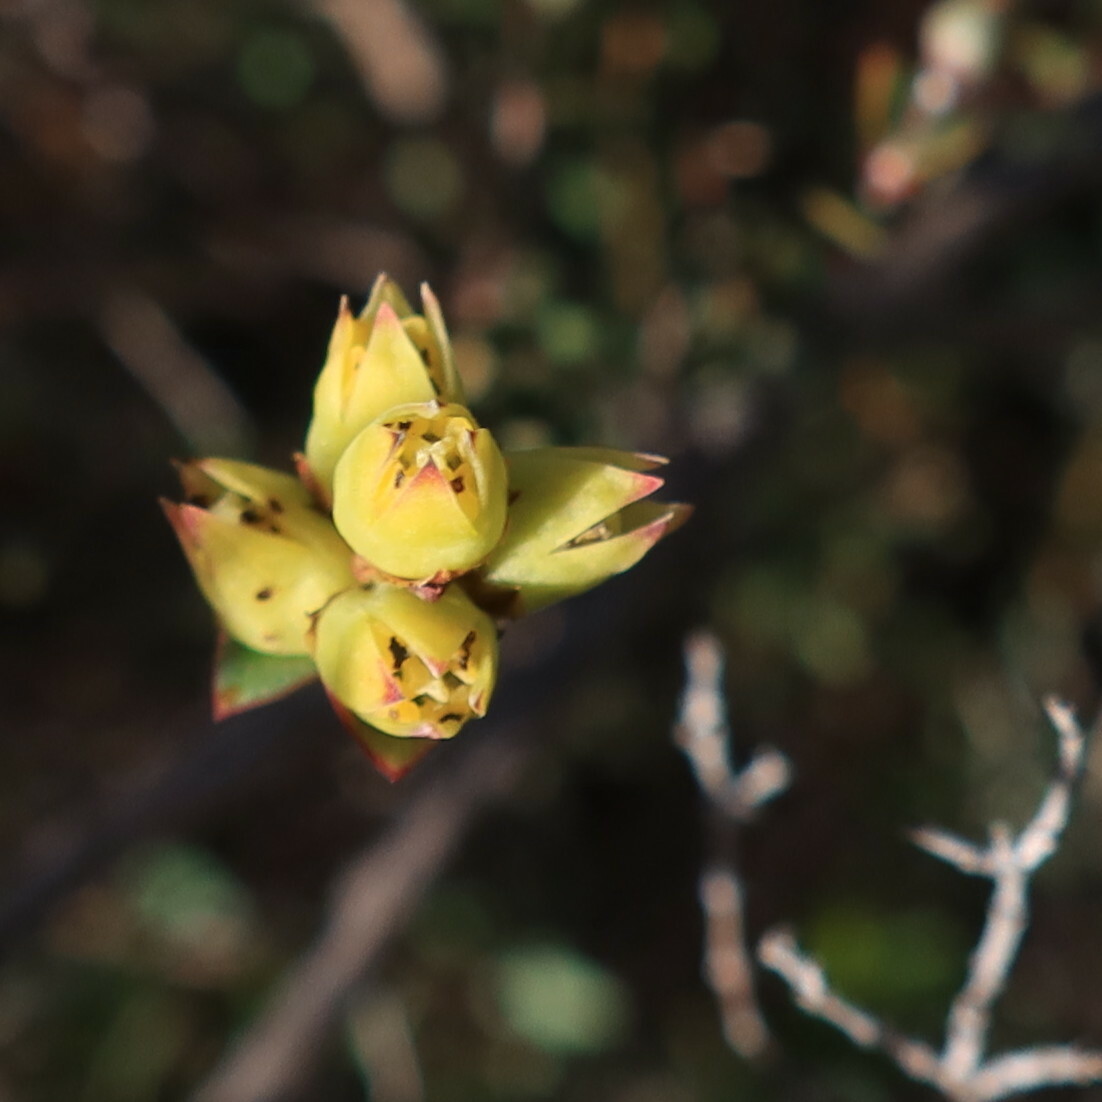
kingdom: Plantae
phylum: Tracheophyta
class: Magnoliopsida
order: Myrtales
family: Penaeaceae
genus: Stylapterus
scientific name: Stylapterus fruticulosus
